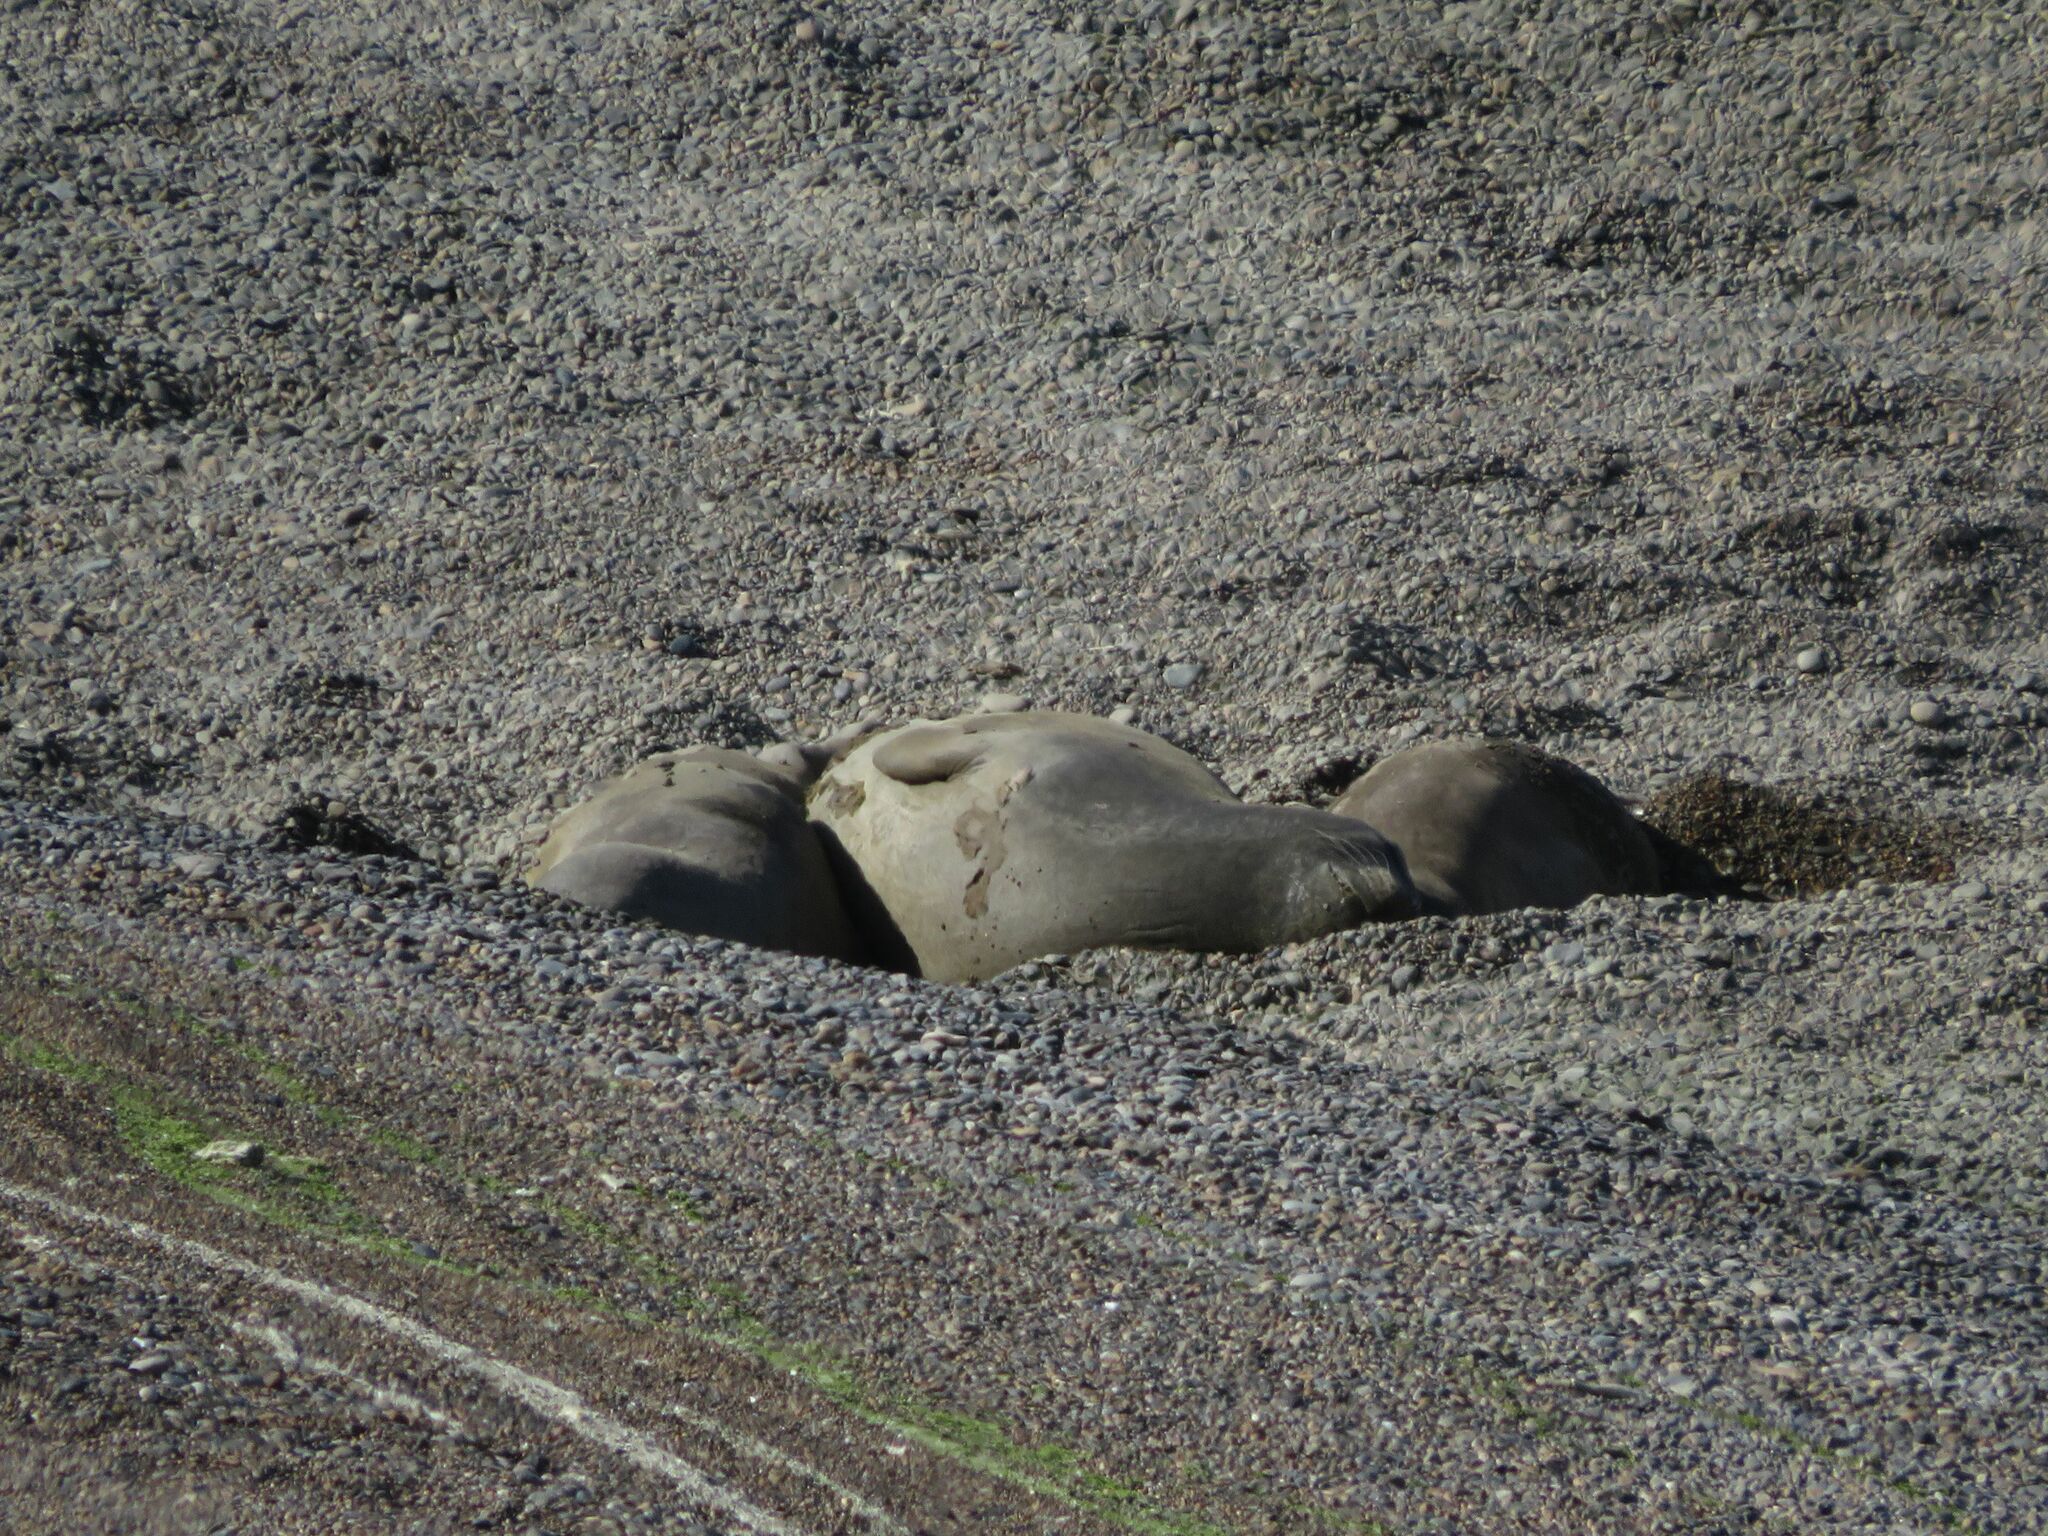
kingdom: Animalia
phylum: Chordata
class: Mammalia
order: Carnivora
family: Phocidae
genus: Mirounga
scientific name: Mirounga leonina
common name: Southern elephant seal
